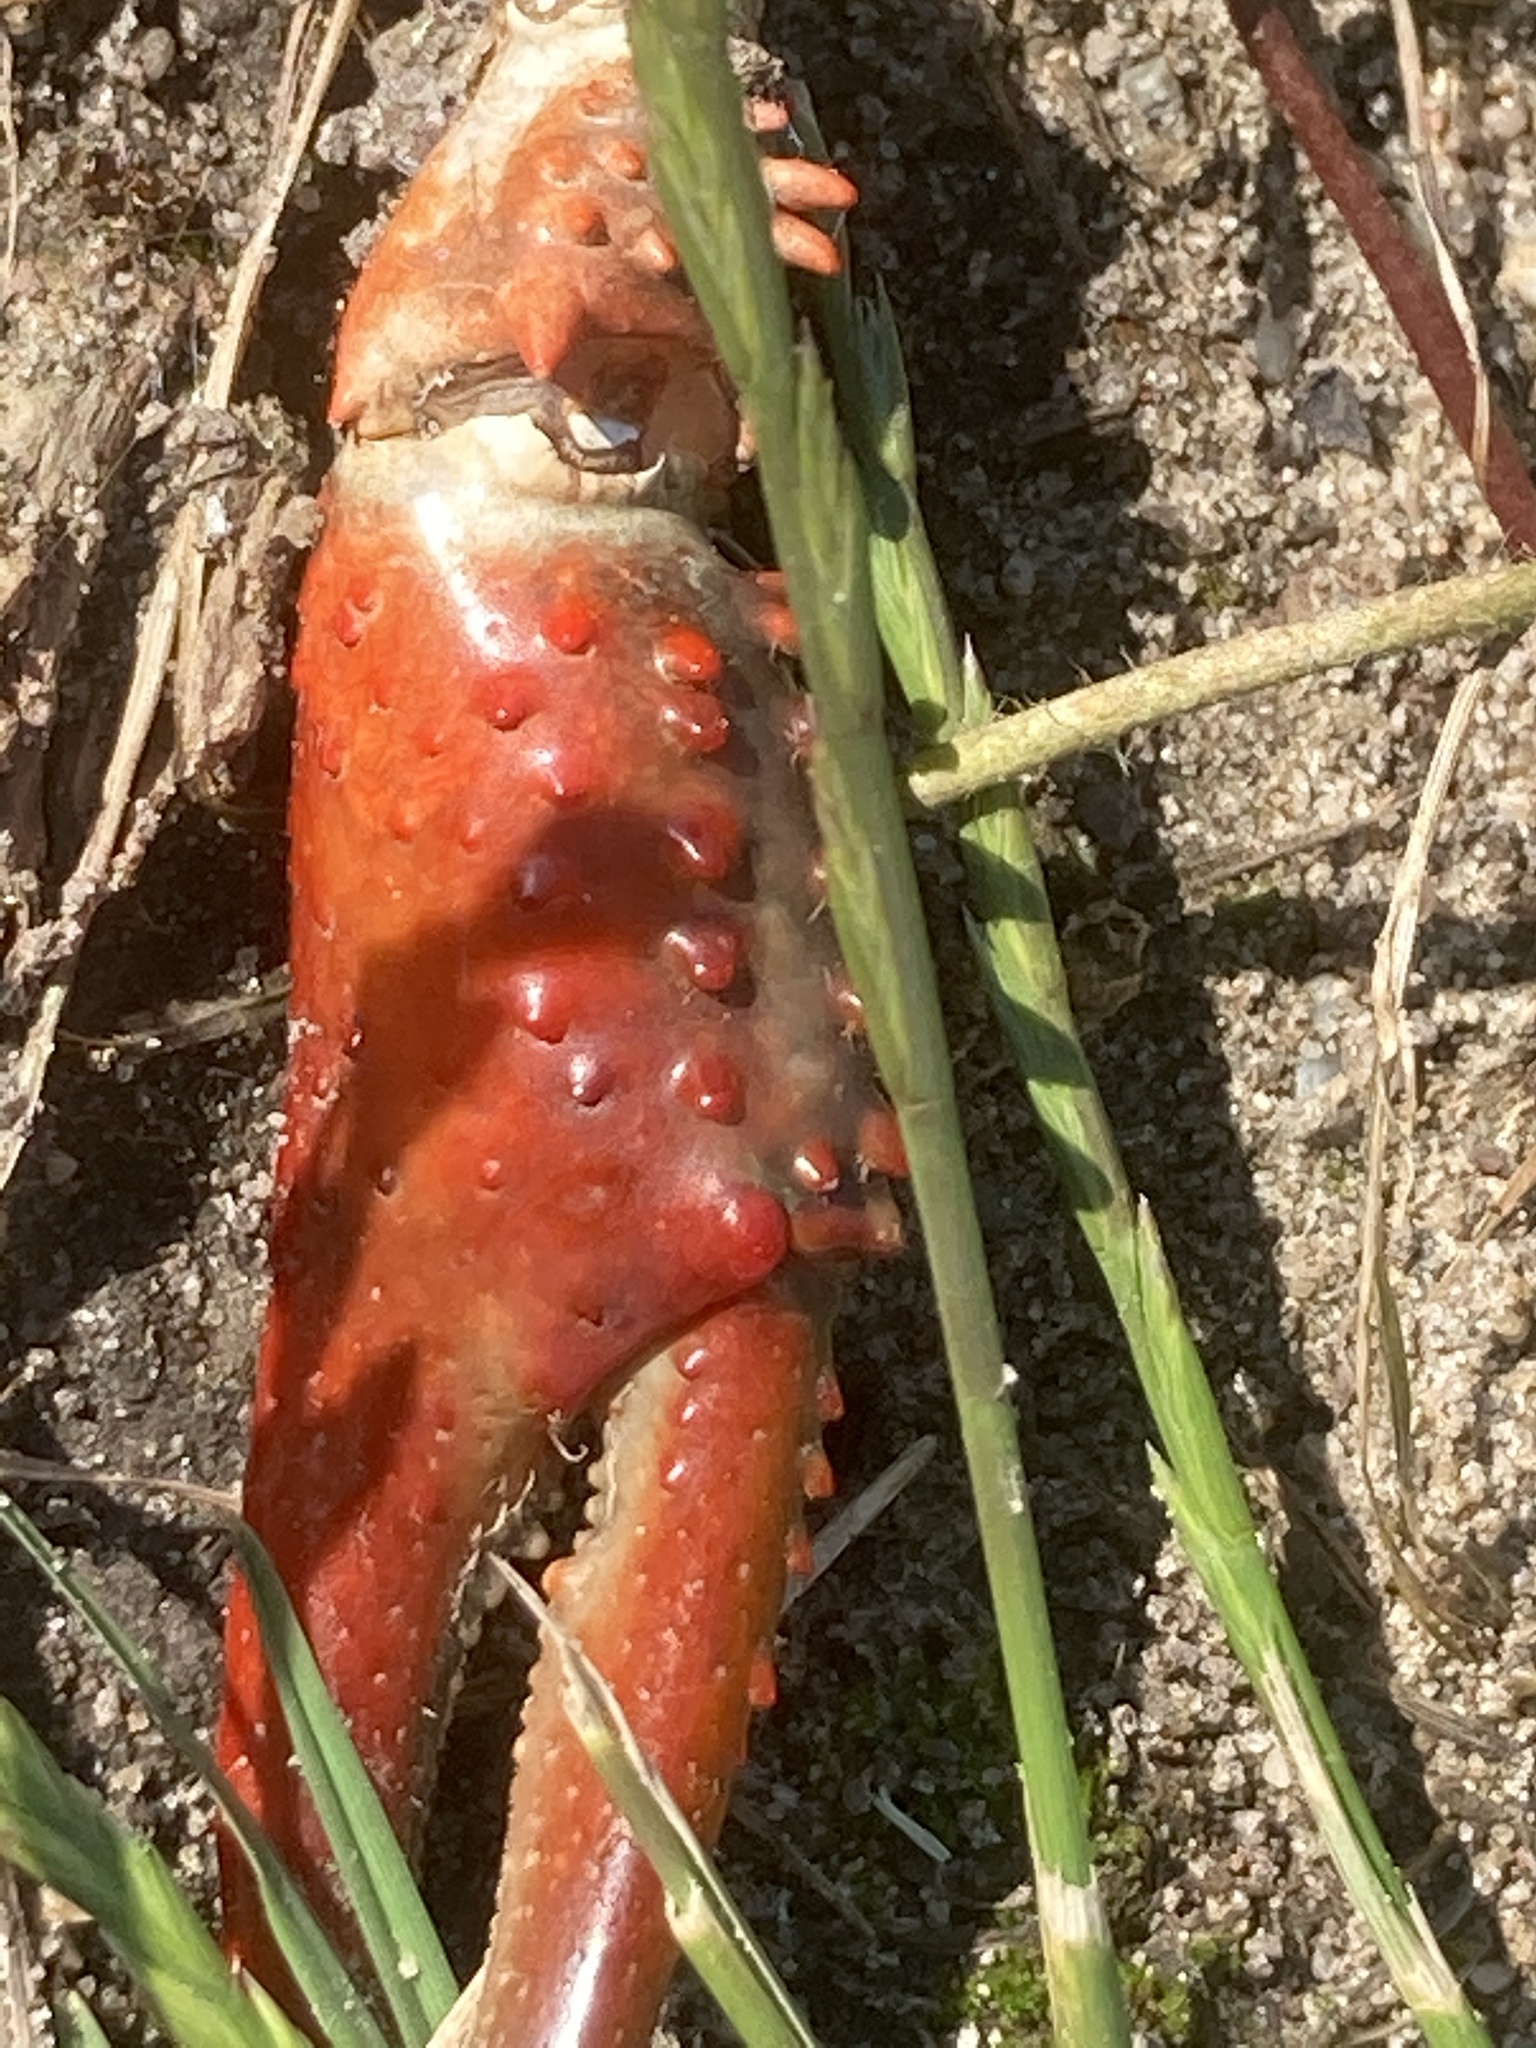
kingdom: Animalia
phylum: Arthropoda
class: Malacostraca
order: Decapoda
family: Cambaridae
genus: Procambarus
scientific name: Procambarus clarkii
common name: Red swamp crayfish
